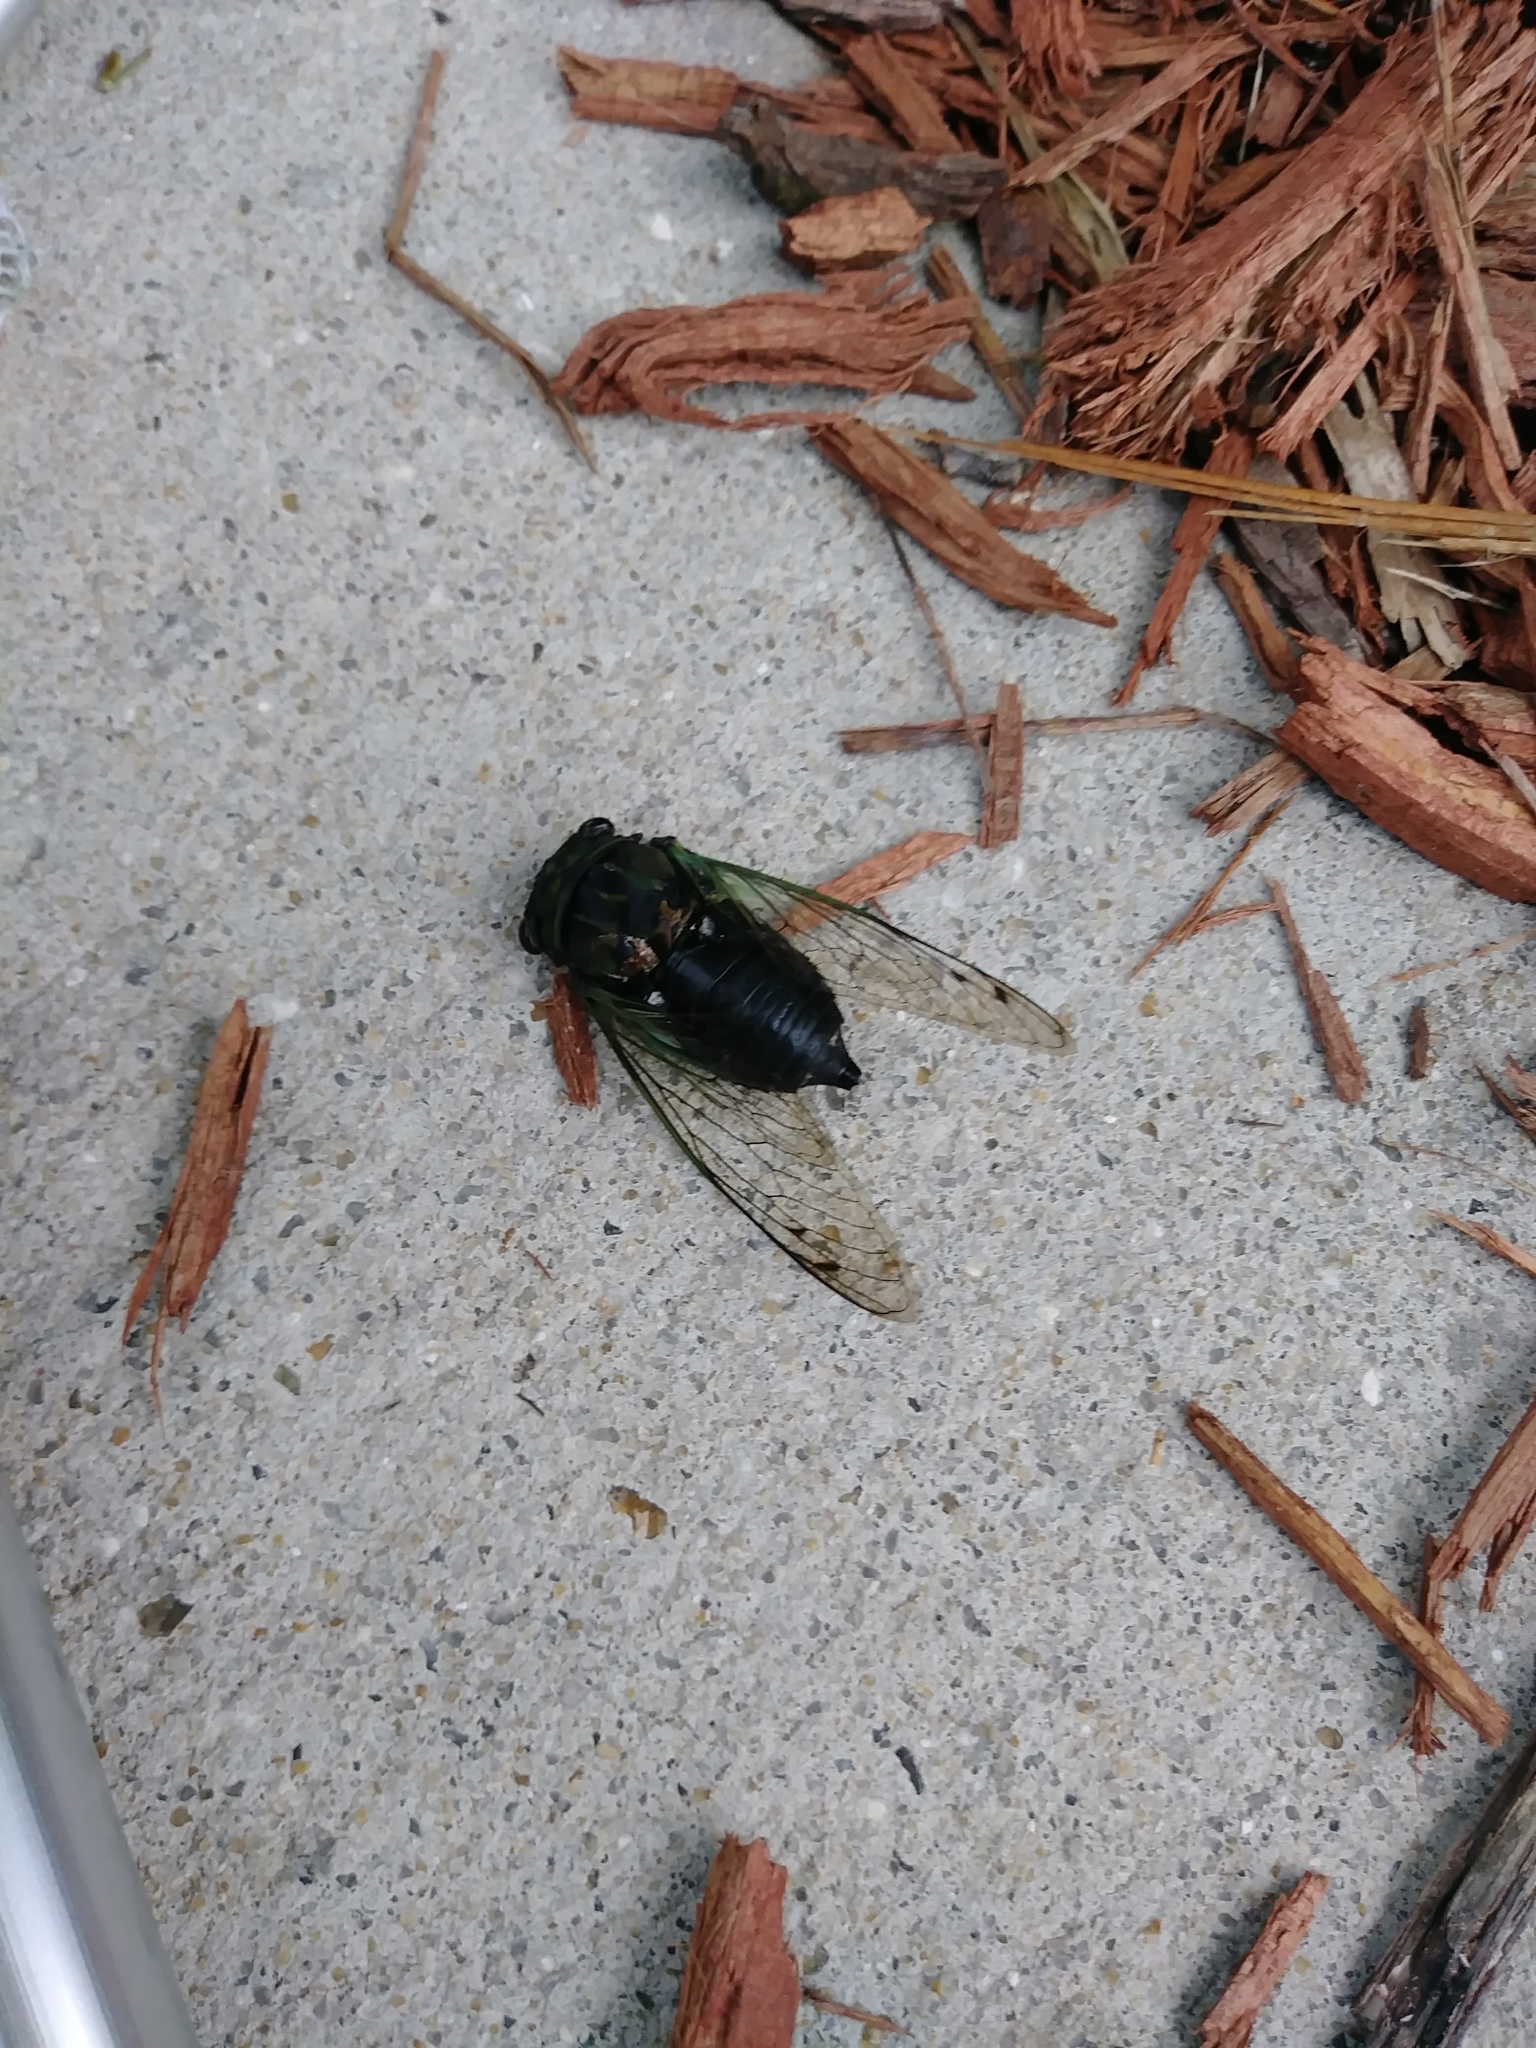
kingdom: Animalia
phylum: Arthropoda
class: Insecta
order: Hemiptera
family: Cicadidae
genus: Neotibicen
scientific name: Neotibicen tibicen
